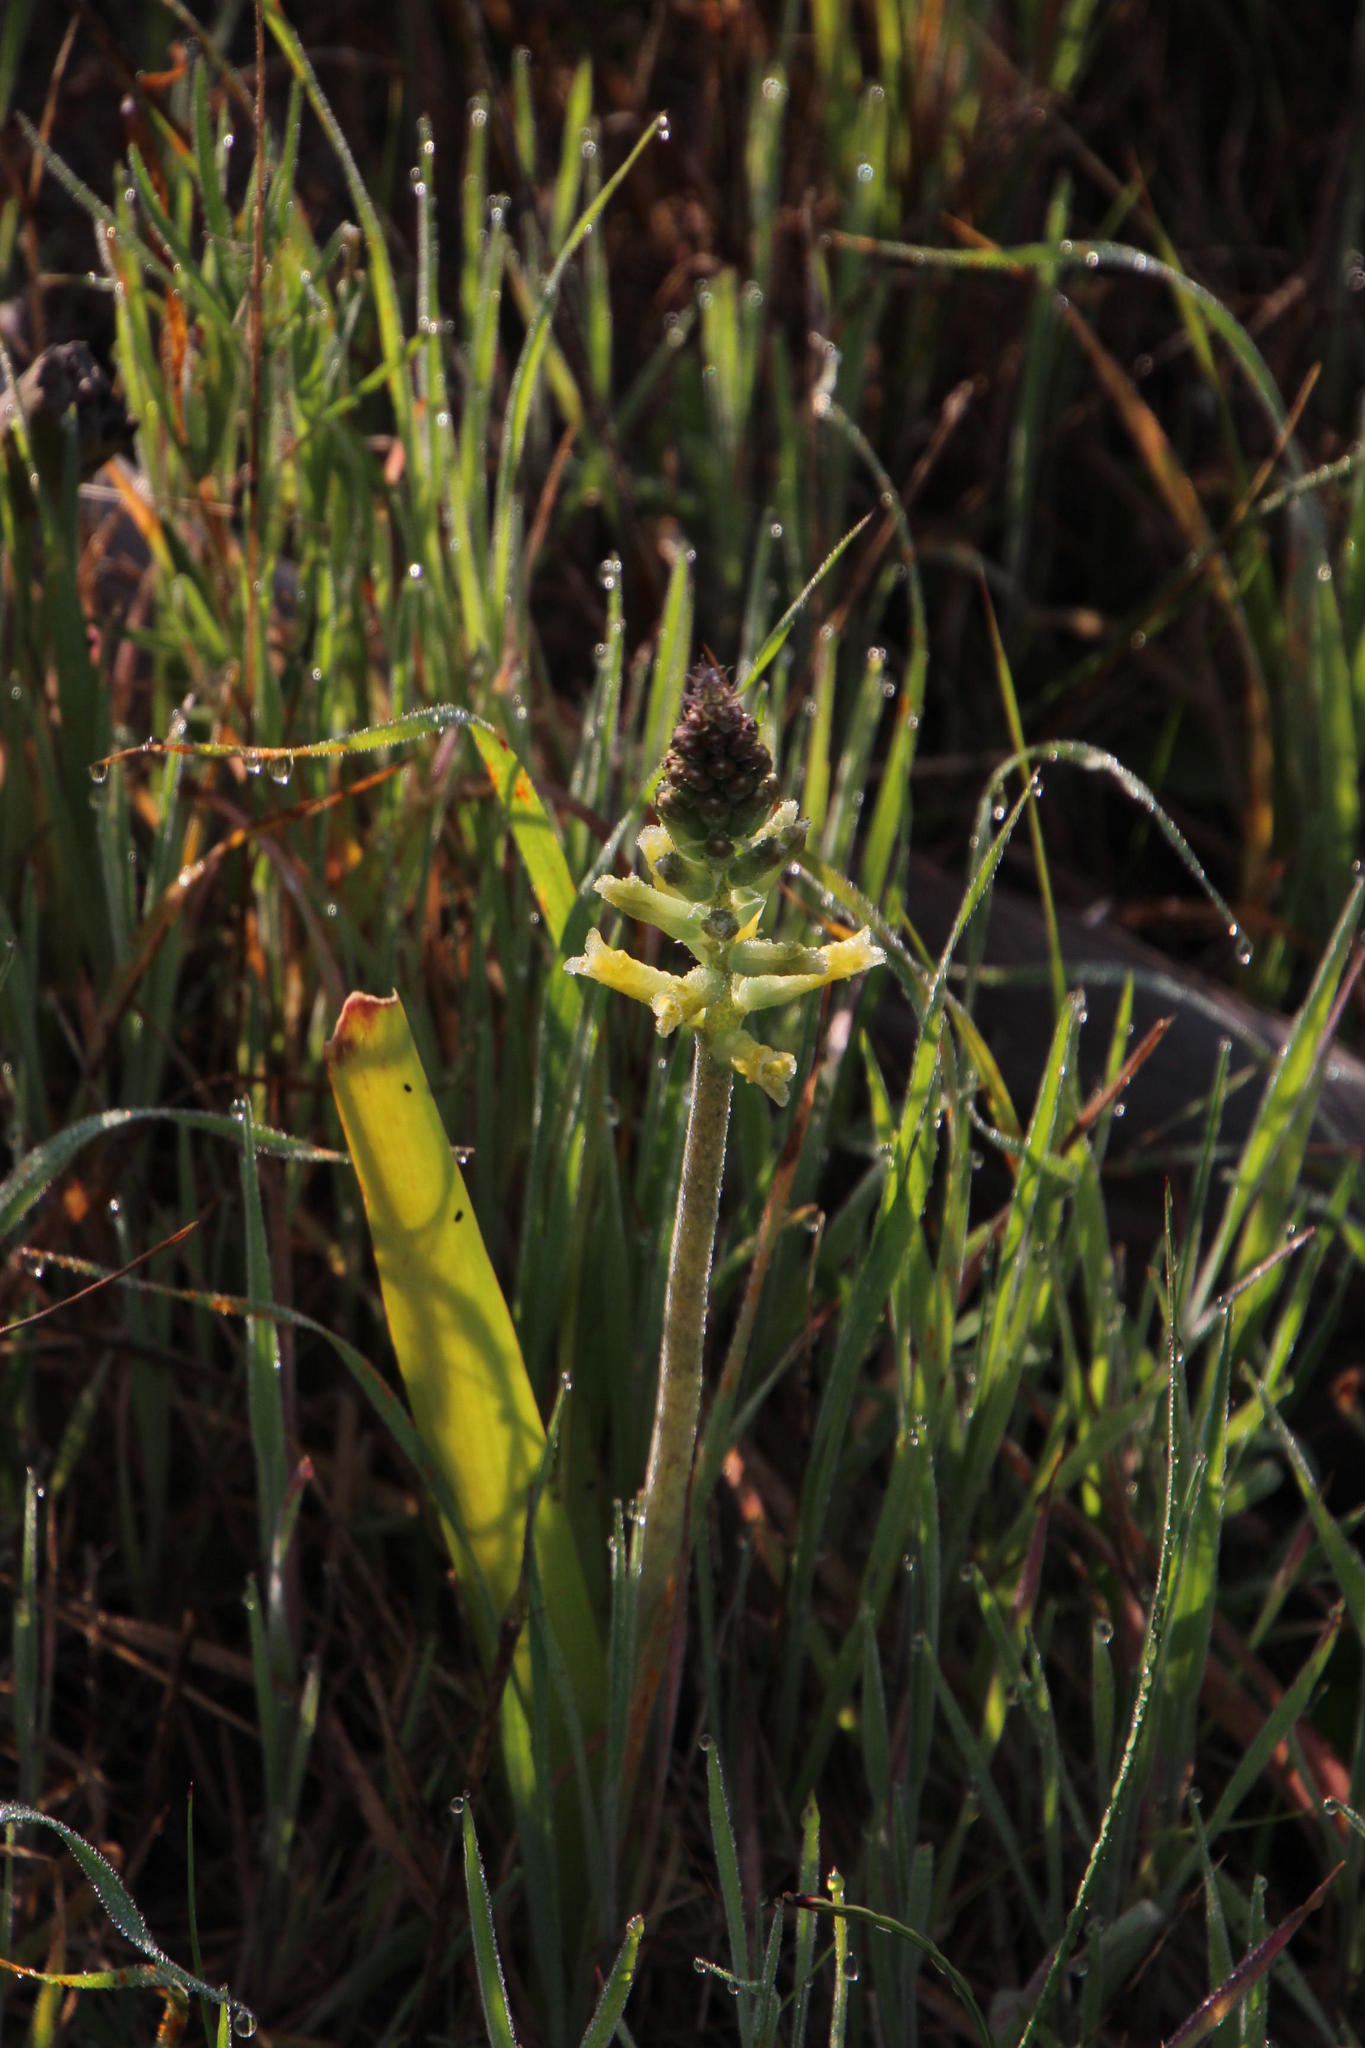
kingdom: Plantae
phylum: Tracheophyta
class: Liliopsida
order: Asparagales
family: Asparagaceae
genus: Lachenalia
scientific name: Lachenalia orchioides
